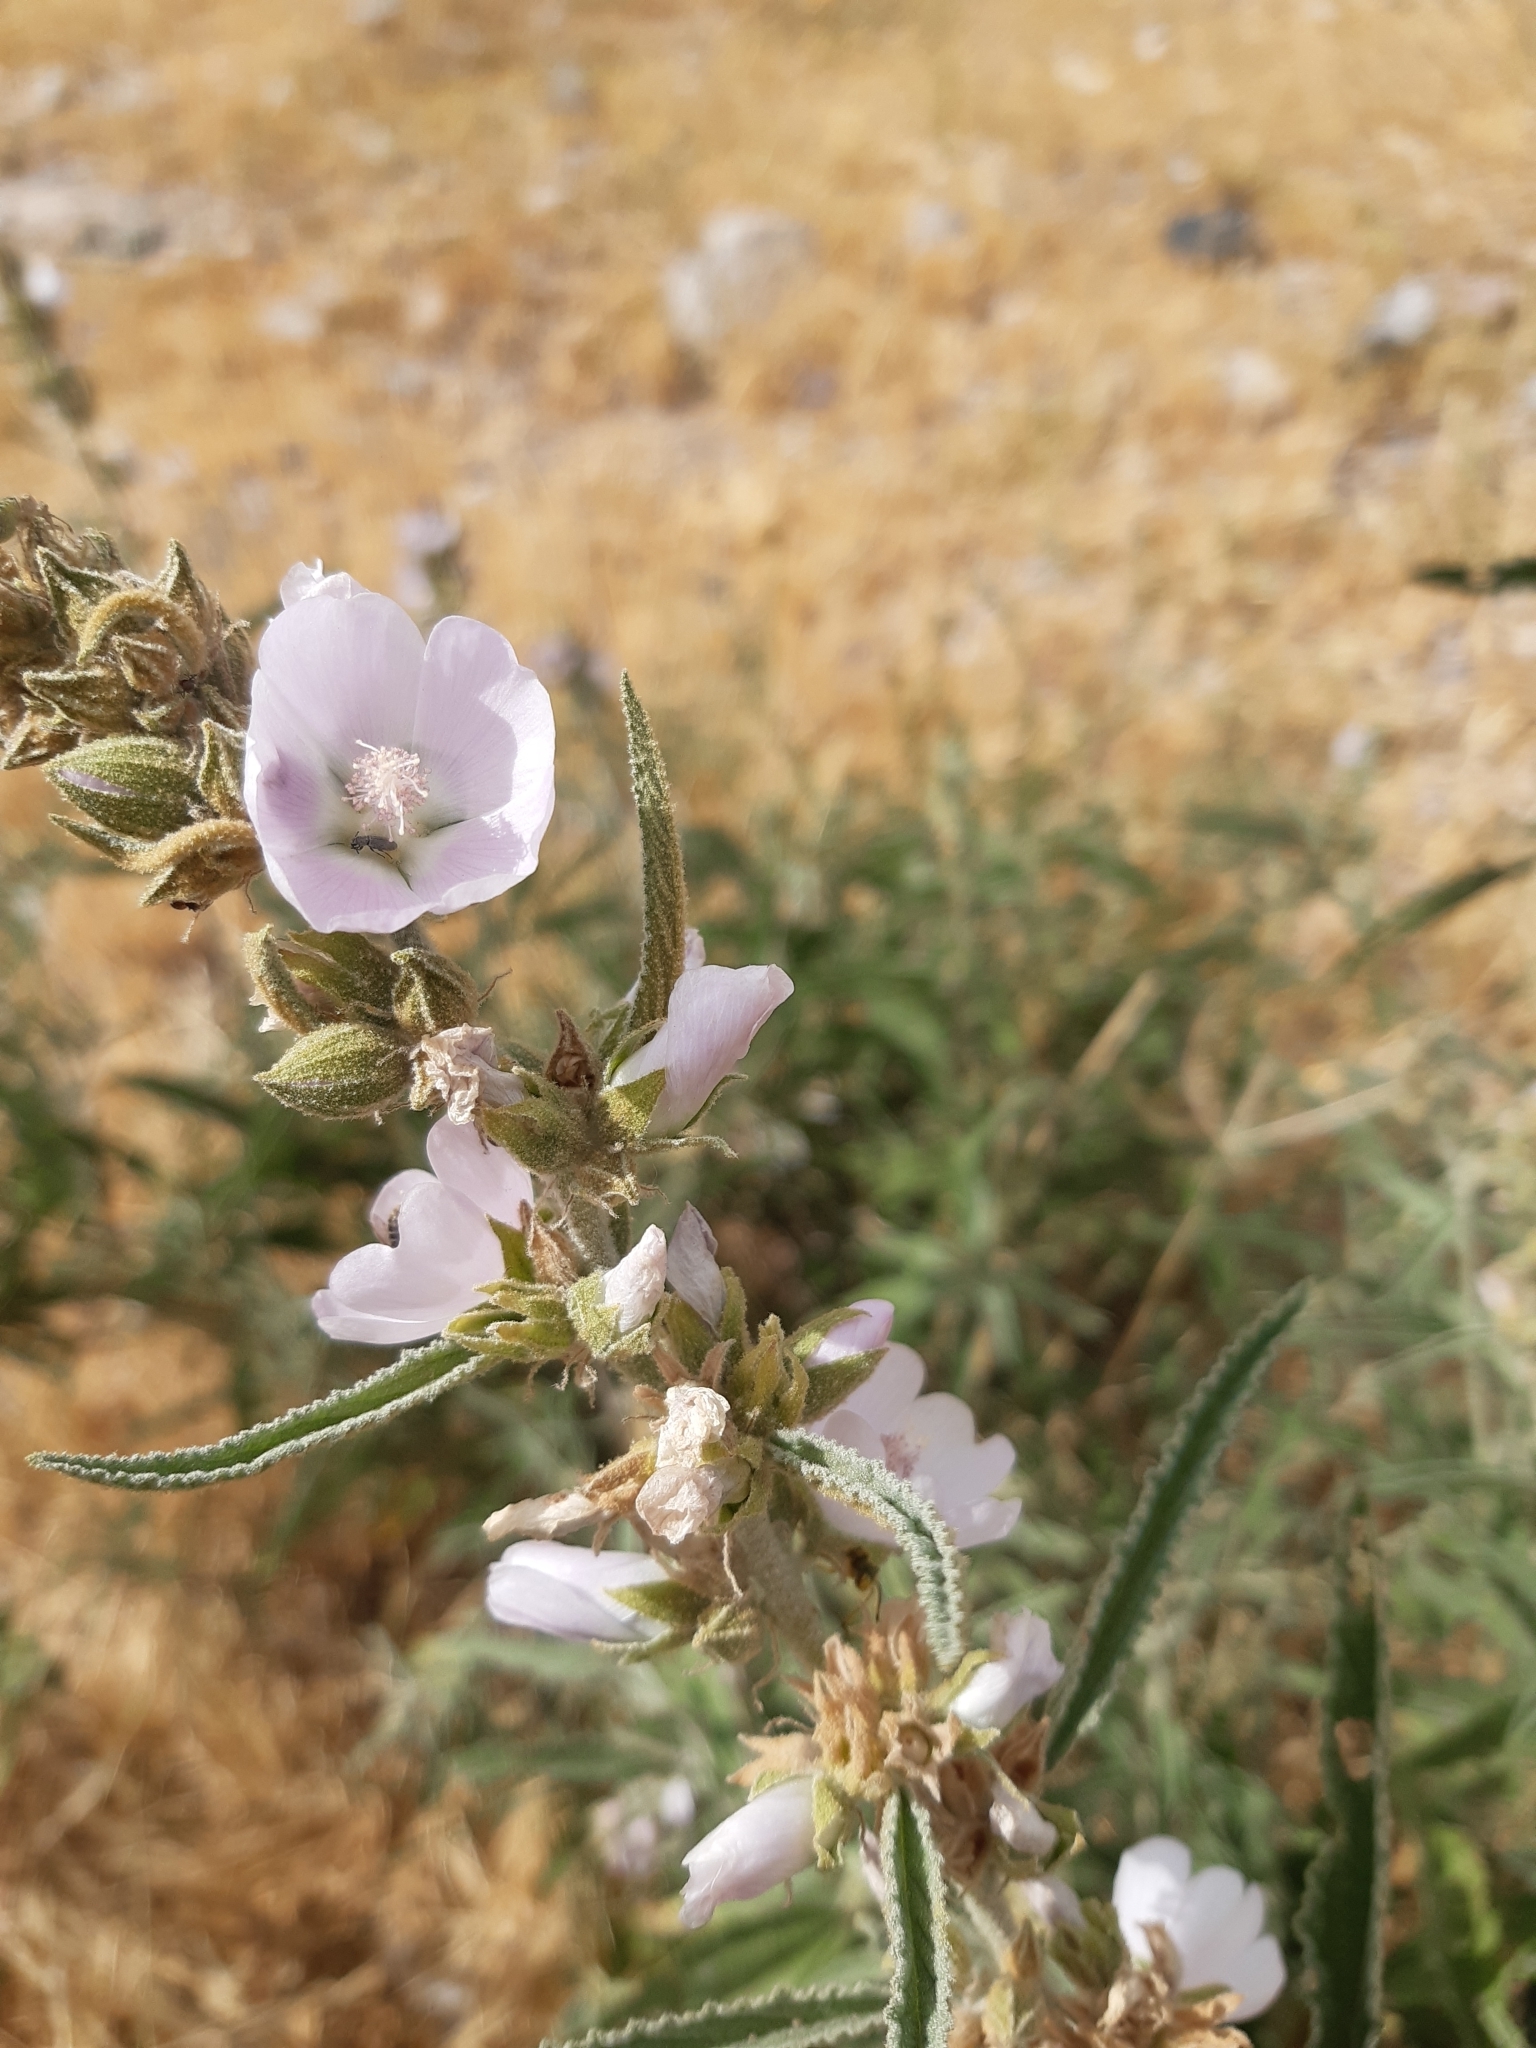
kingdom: Plantae
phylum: Tracheophyta
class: Magnoliopsida
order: Malvales
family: Malvaceae
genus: Sphaeralcea
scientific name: Sphaeralcea angustifolia
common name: Copper globe-mallow
